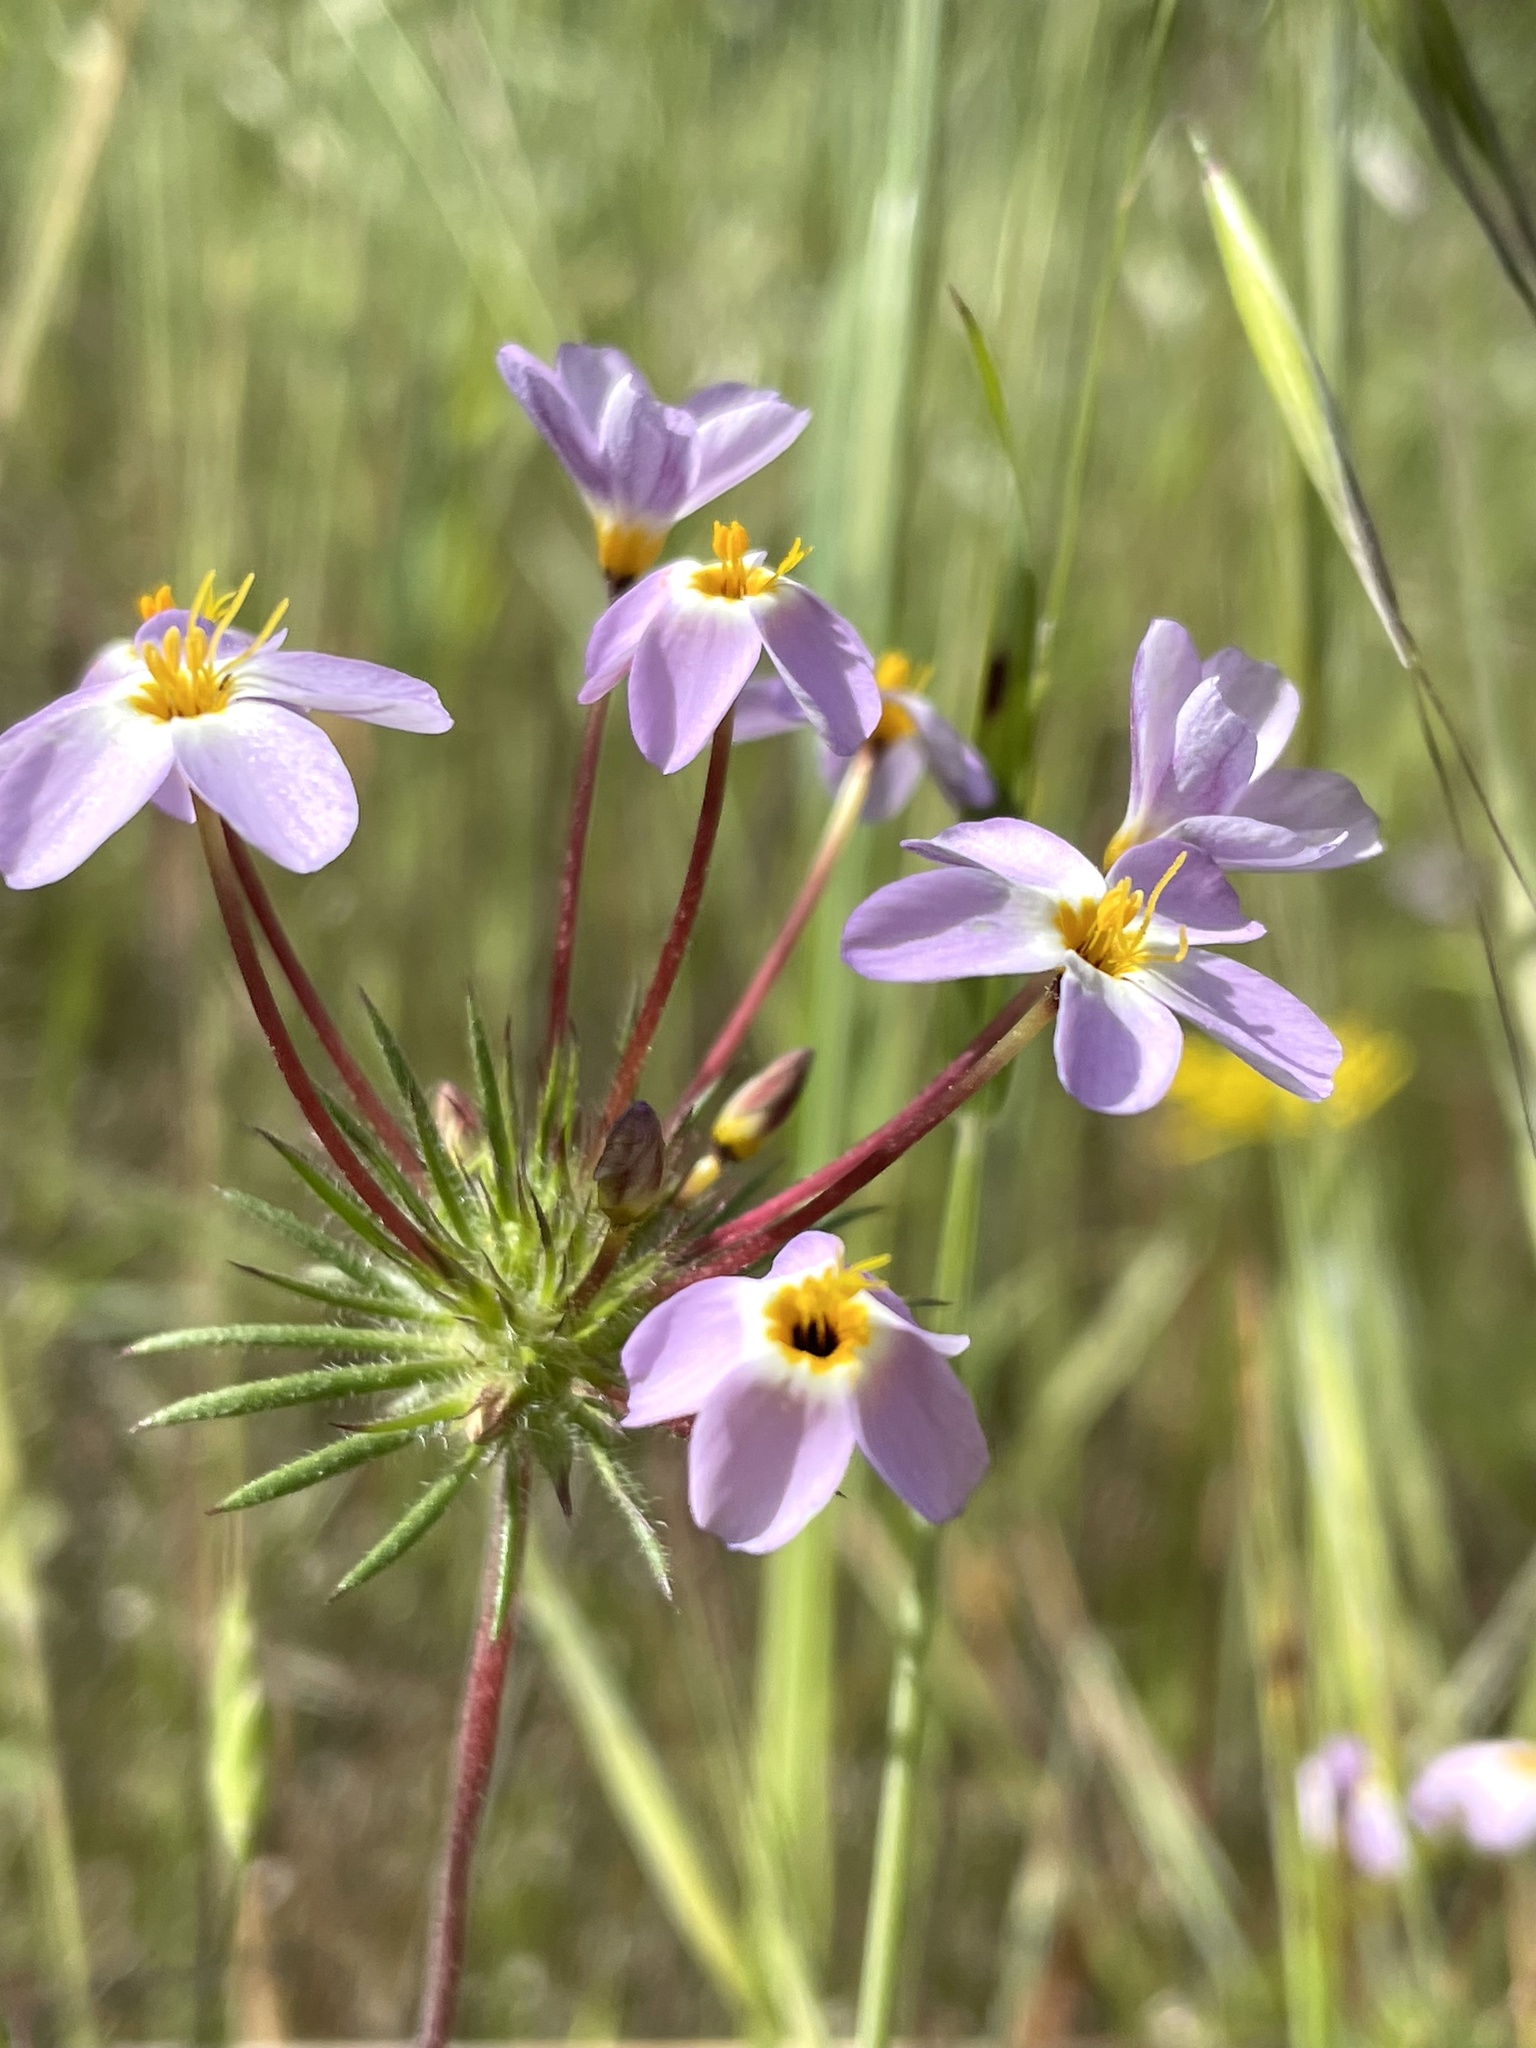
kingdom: Plantae
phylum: Tracheophyta
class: Magnoliopsida
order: Ericales
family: Polemoniaceae
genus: Leptosiphon
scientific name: Leptosiphon androsaceus
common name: False babystars
